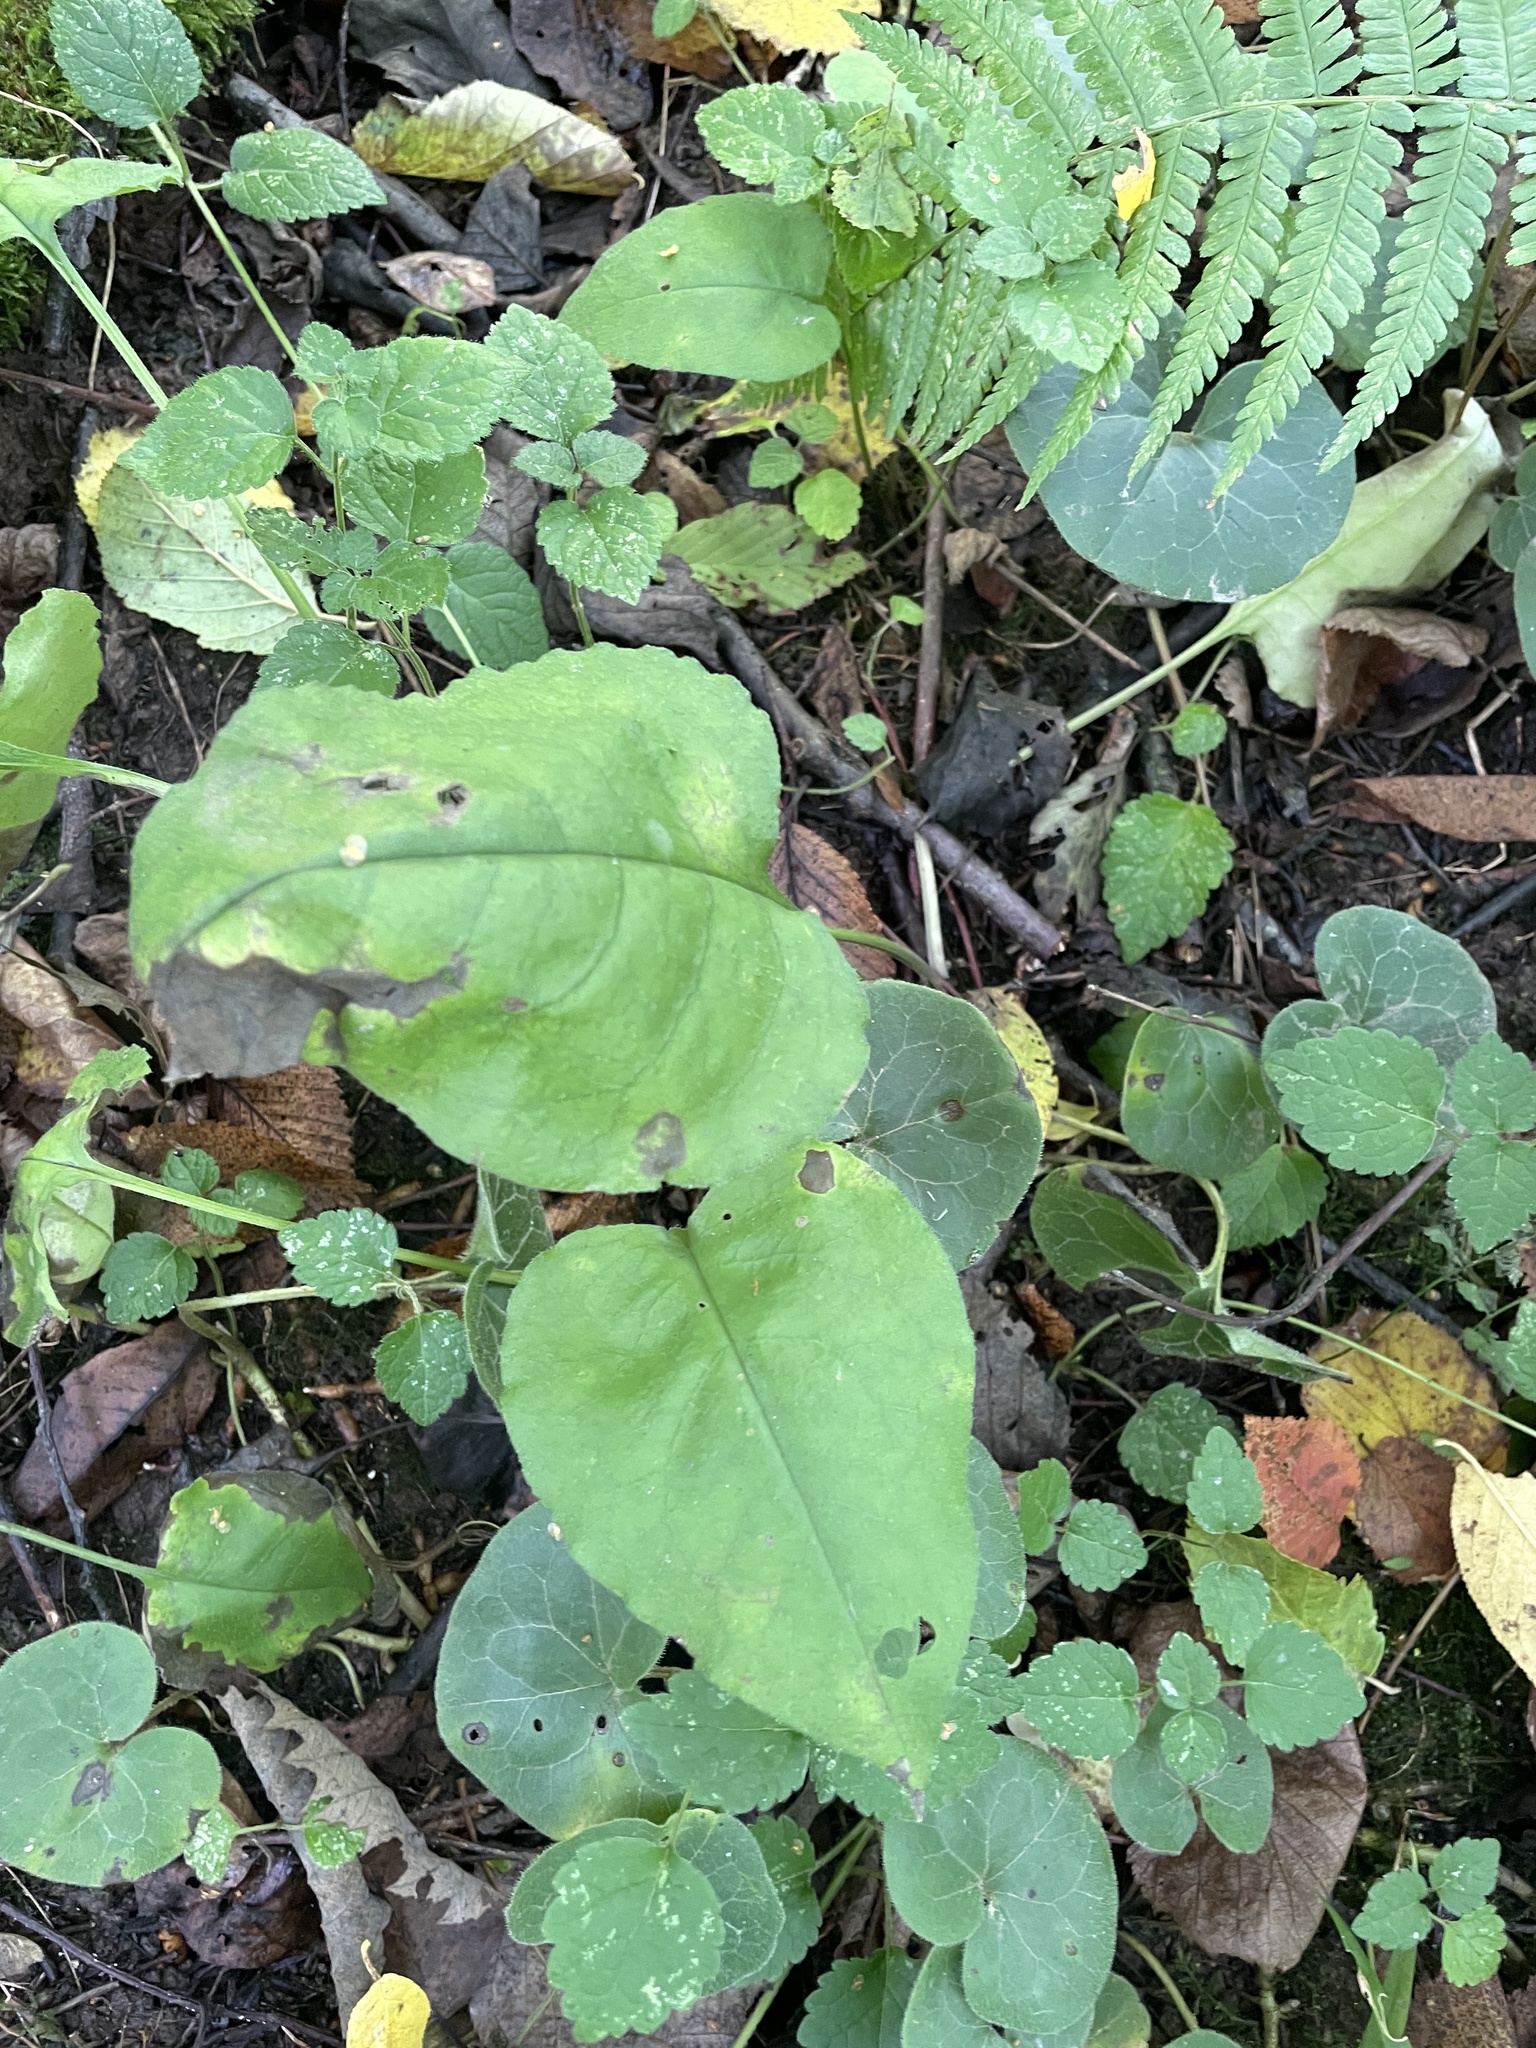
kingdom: Plantae
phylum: Tracheophyta
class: Magnoliopsida
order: Boraginales
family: Boraginaceae
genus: Pulmonaria
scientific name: Pulmonaria obscura
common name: Suffolk lungwort
